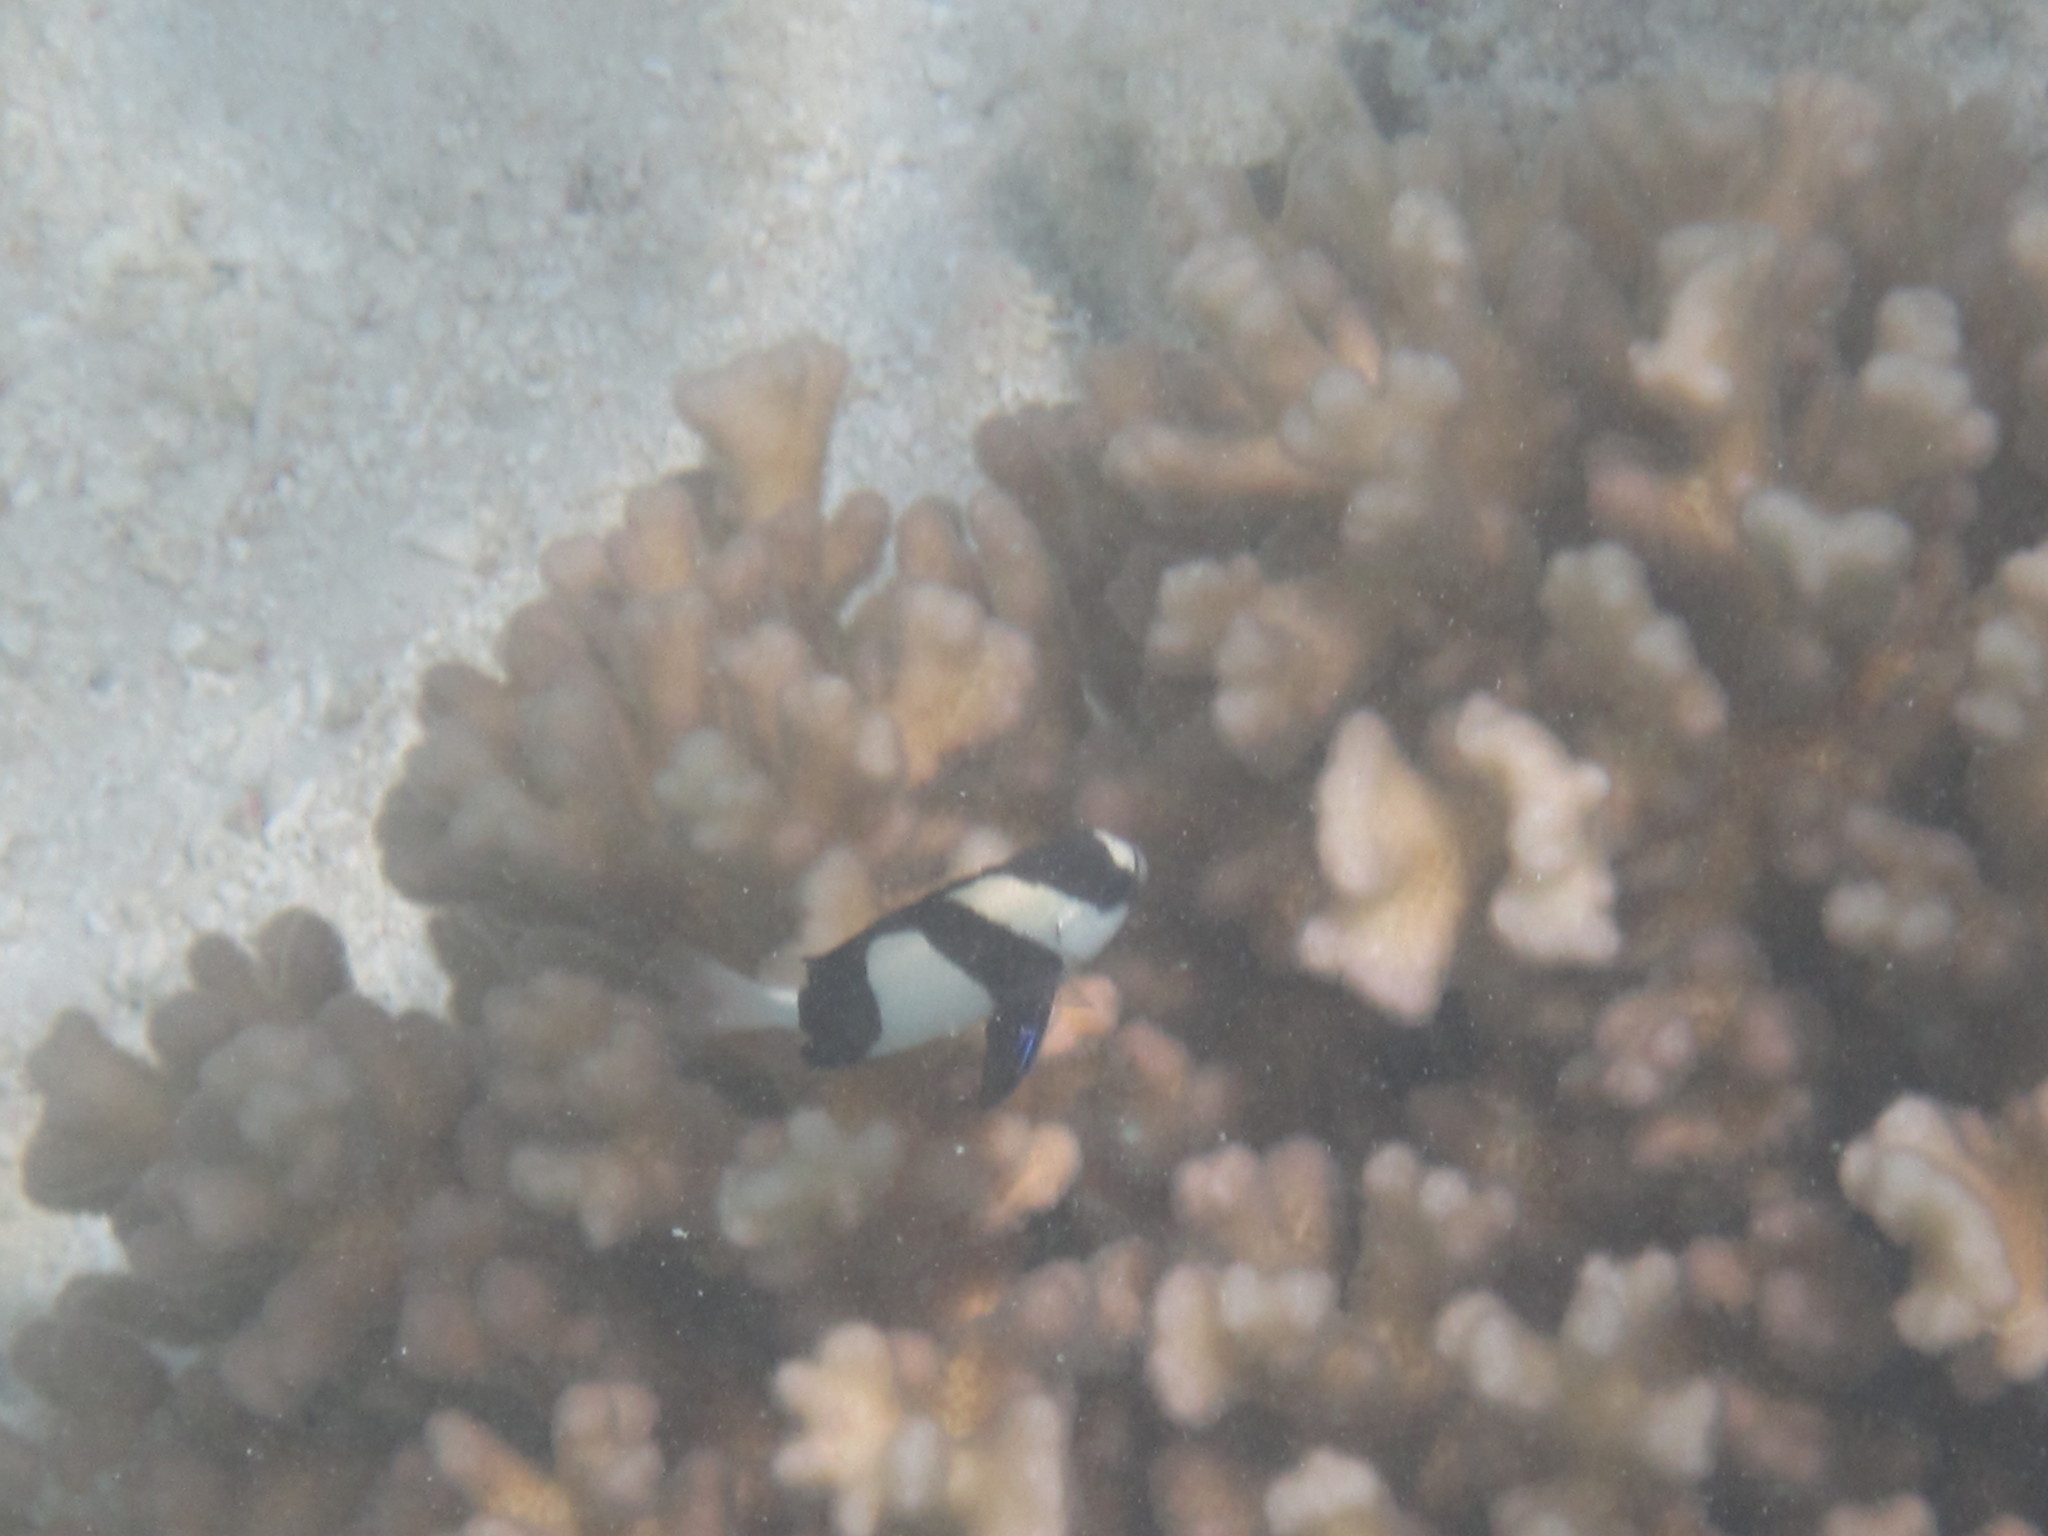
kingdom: Animalia
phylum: Chordata
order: Perciformes
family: Pomacentridae
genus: Dascyllus
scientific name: Dascyllus aruanus
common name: Humbug dascyllus
